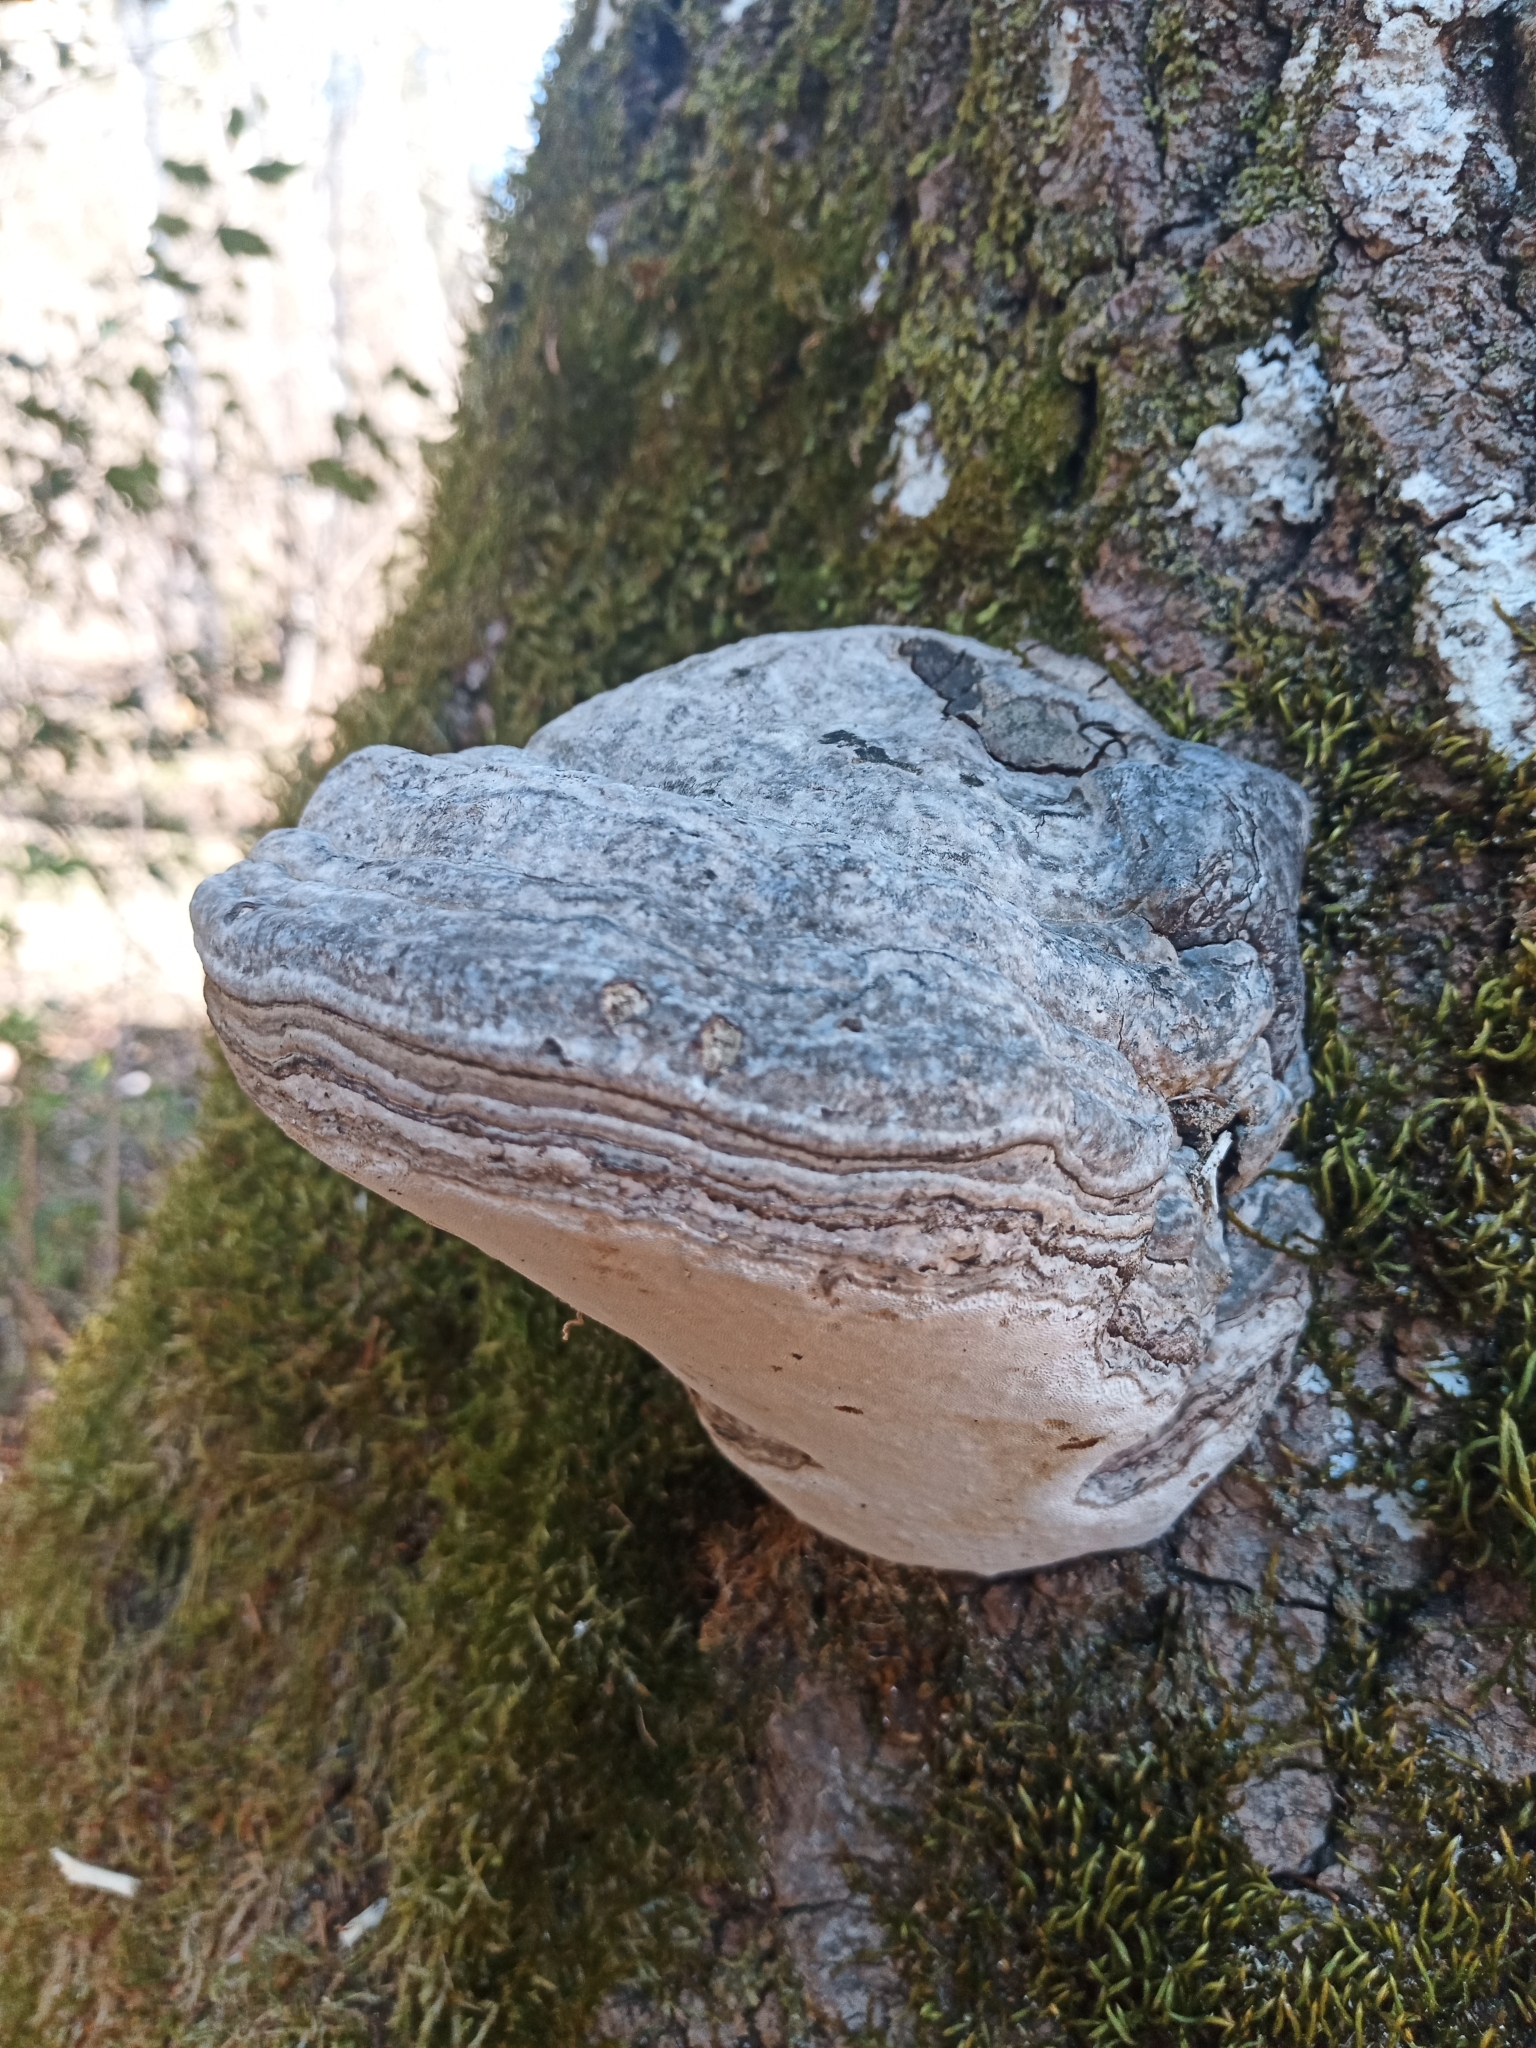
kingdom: Fungi
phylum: Basidiomycota
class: Agaricomycetes
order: Polyporales
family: Polyporaceae
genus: Fomes
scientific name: Fomes fomentarius
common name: Hoof fungus
